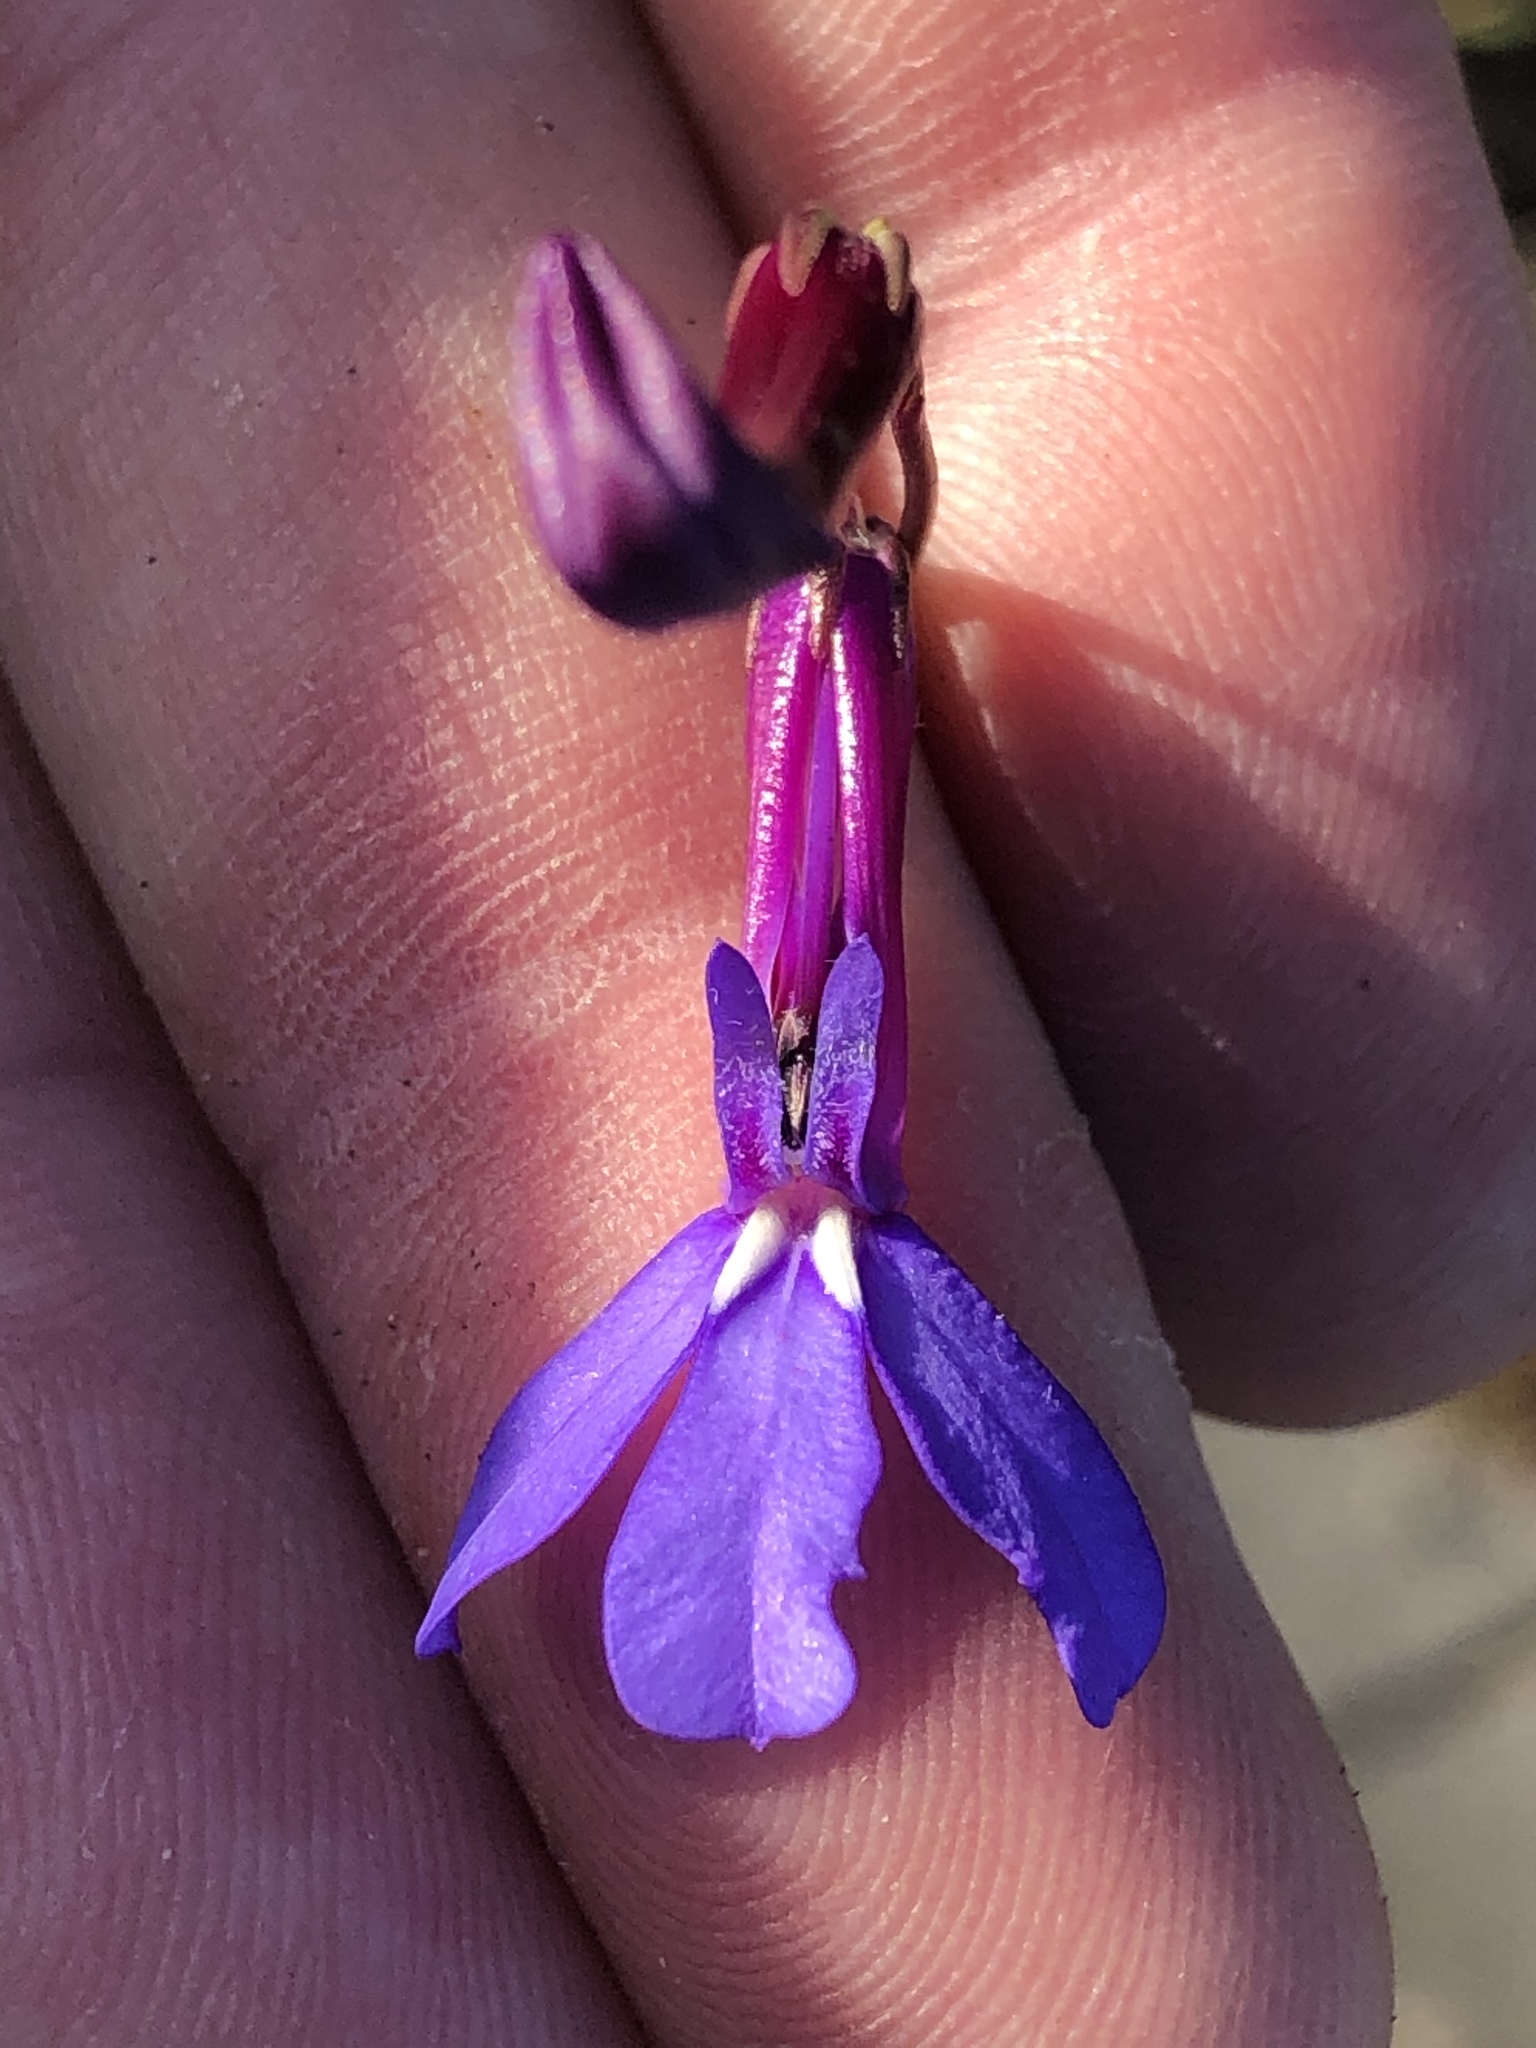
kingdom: Plantae
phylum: Tracheophyta
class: Magnoliopsida
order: Asterales
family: Campanulaceae
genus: Lobelia
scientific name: Lobelia tomentosa
